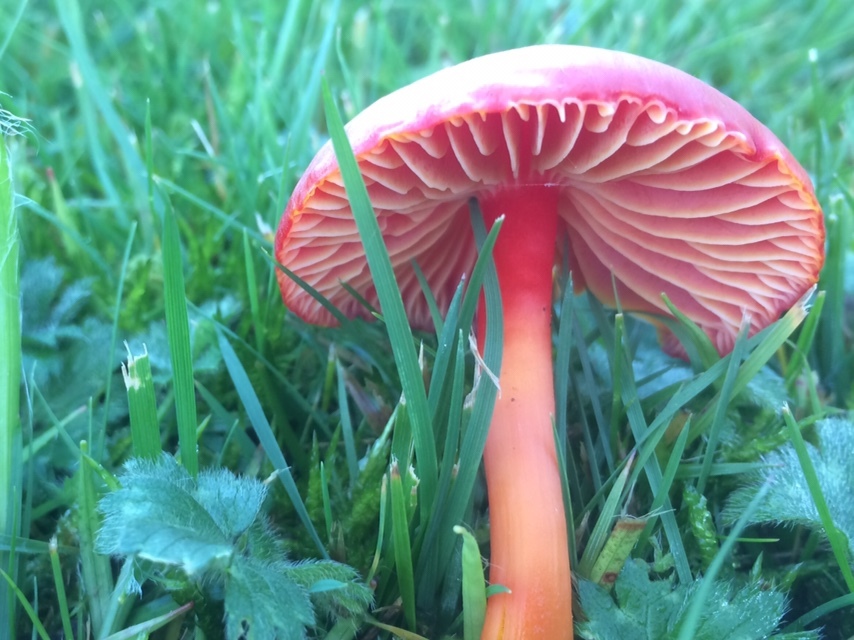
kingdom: Fungi
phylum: Basidiomycota
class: Agaricomycetes
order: Agaricales
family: Hygrophoraceae
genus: Hygrocybe
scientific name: Hygrocybe coccinea
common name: Scarlet hood
